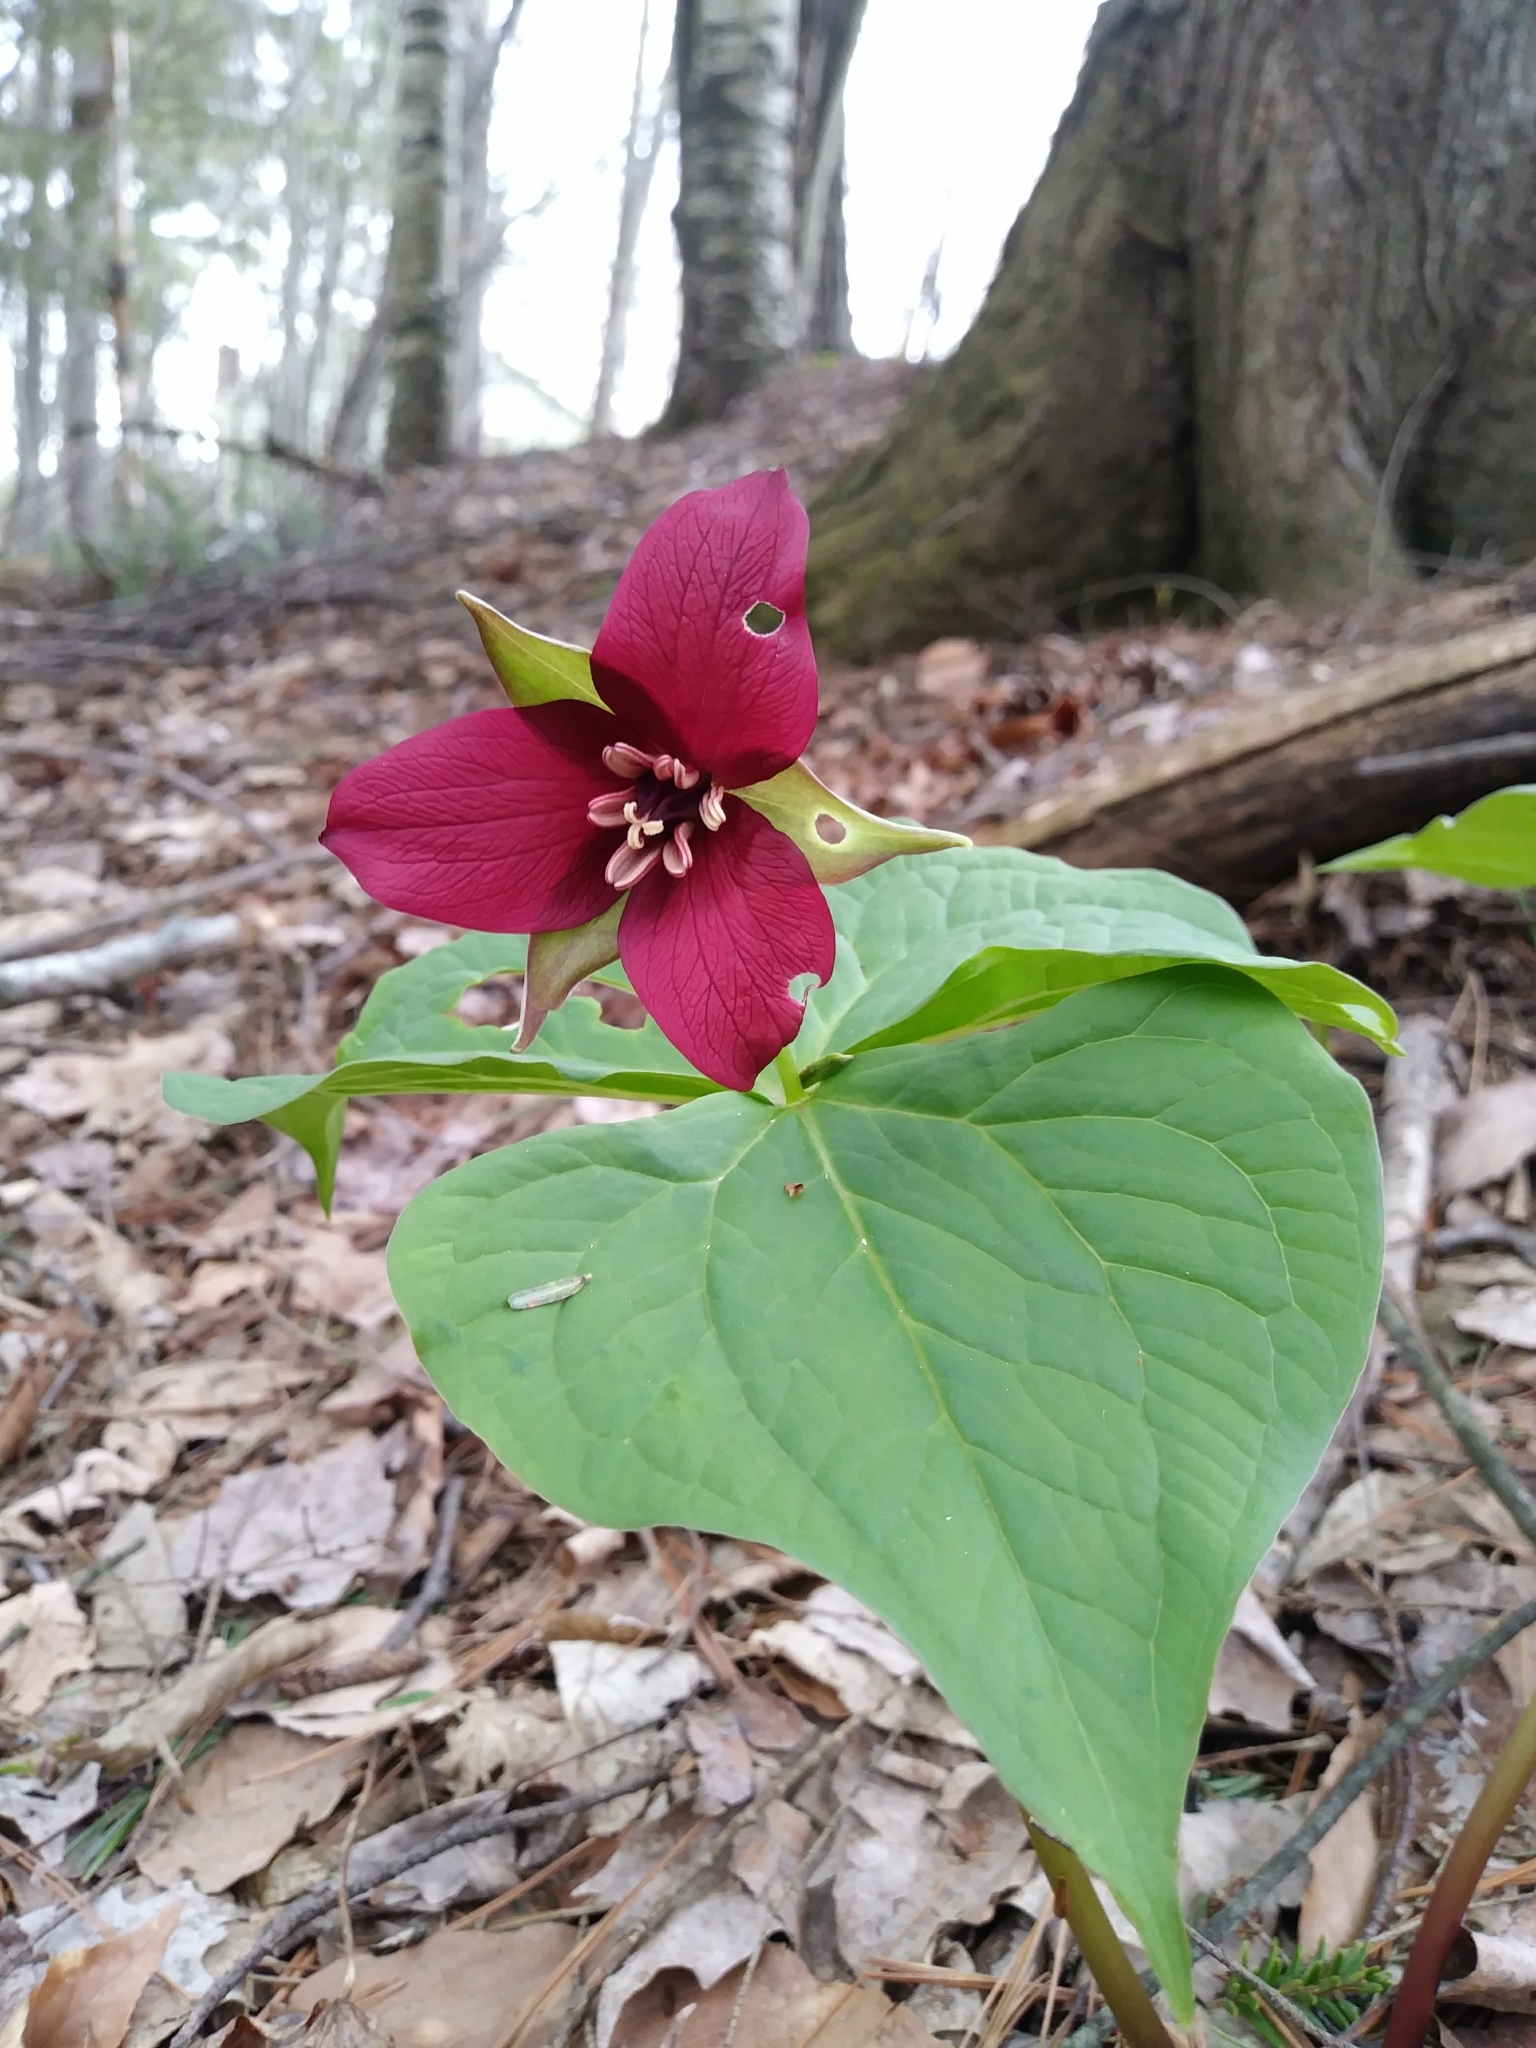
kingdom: Plantae
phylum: Tracheophyta
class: Liliopsida
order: Liliales
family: Melanthiaceae
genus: Trillium
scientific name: Trillium erectum
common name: Purple trillium
